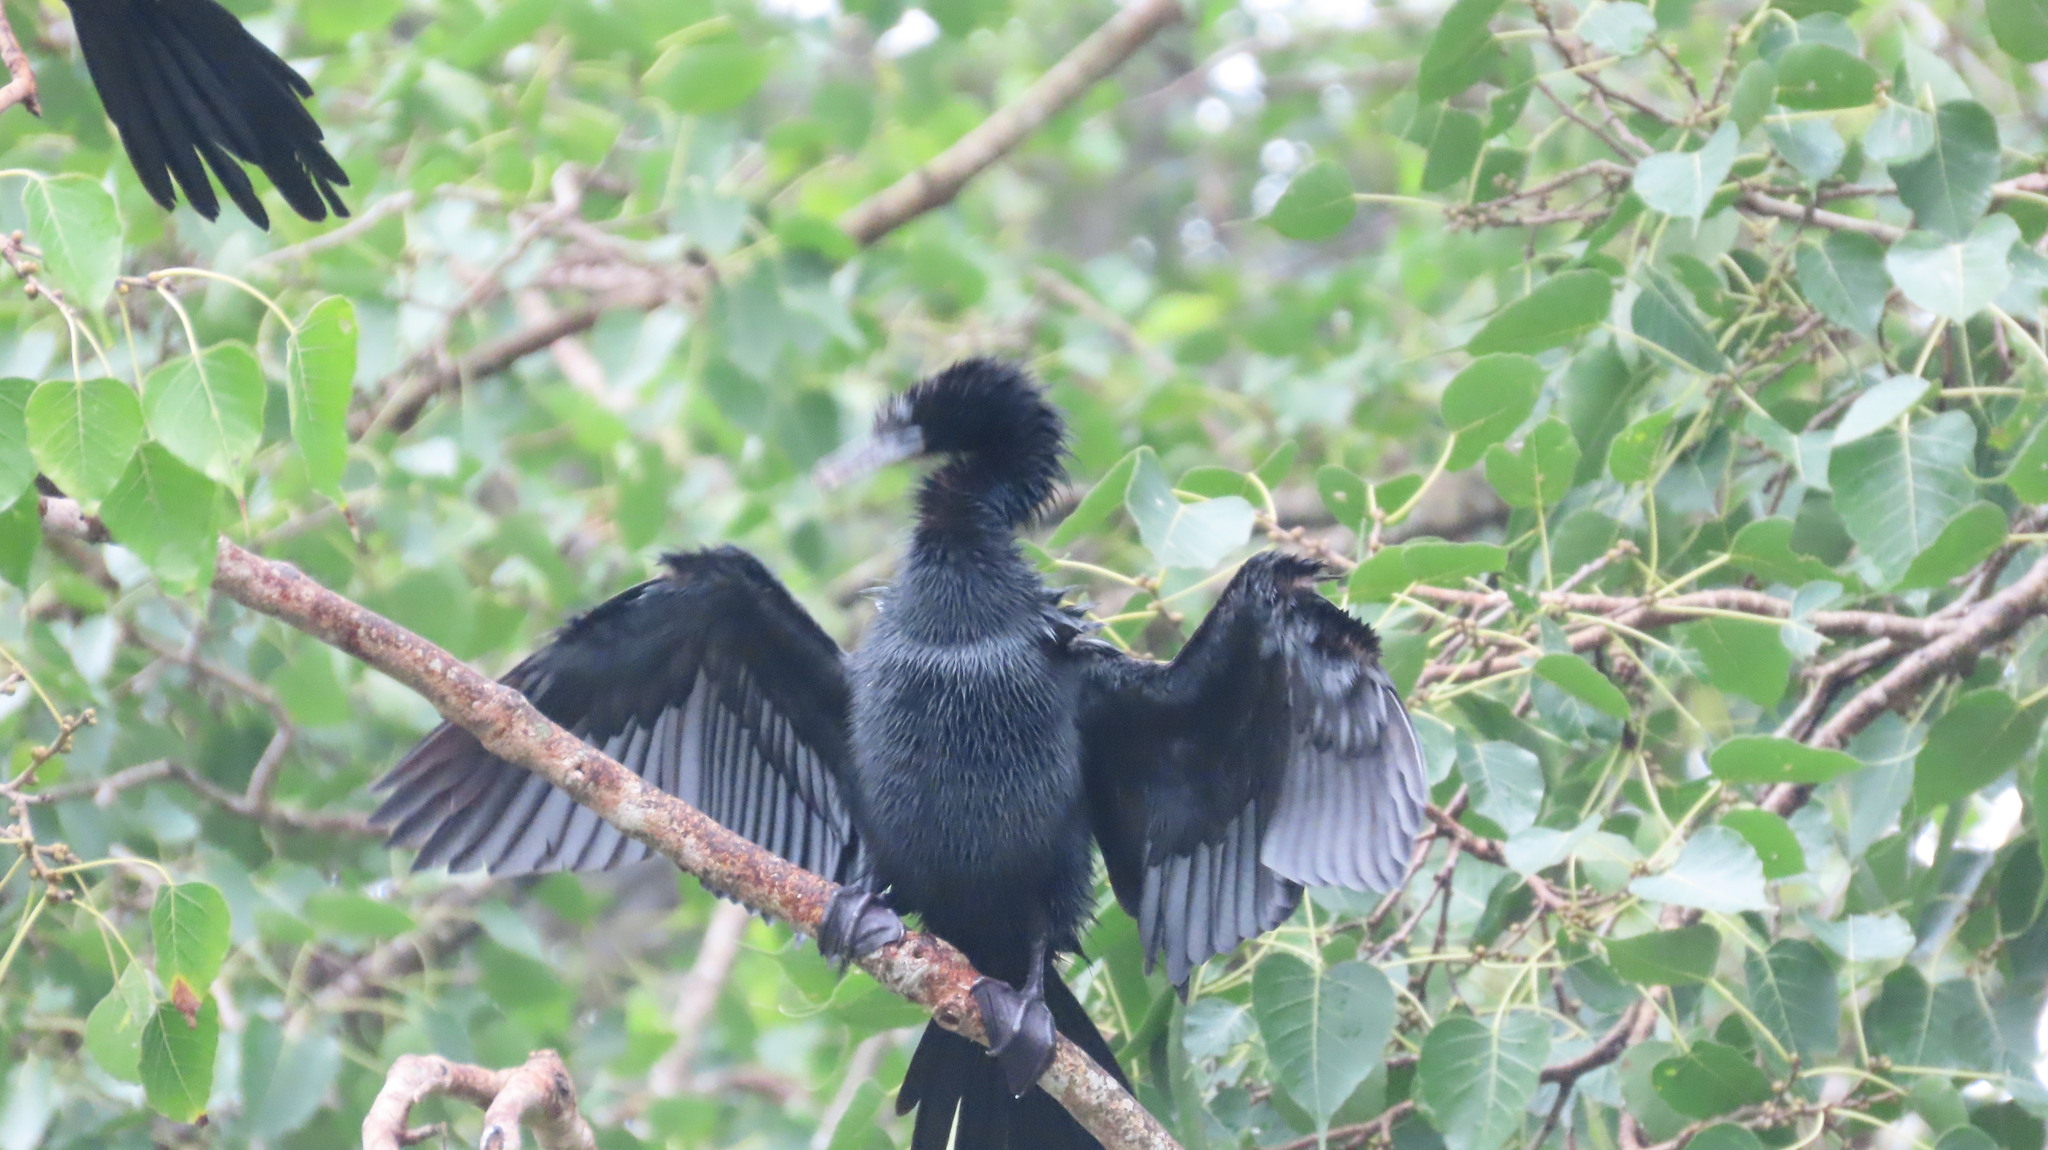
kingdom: Animalia
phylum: Chordata
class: Aves
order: Suliformes
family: Phalacrocoracidae
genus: Microcarbo
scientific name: Microcarbo niger
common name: Little cormorant
